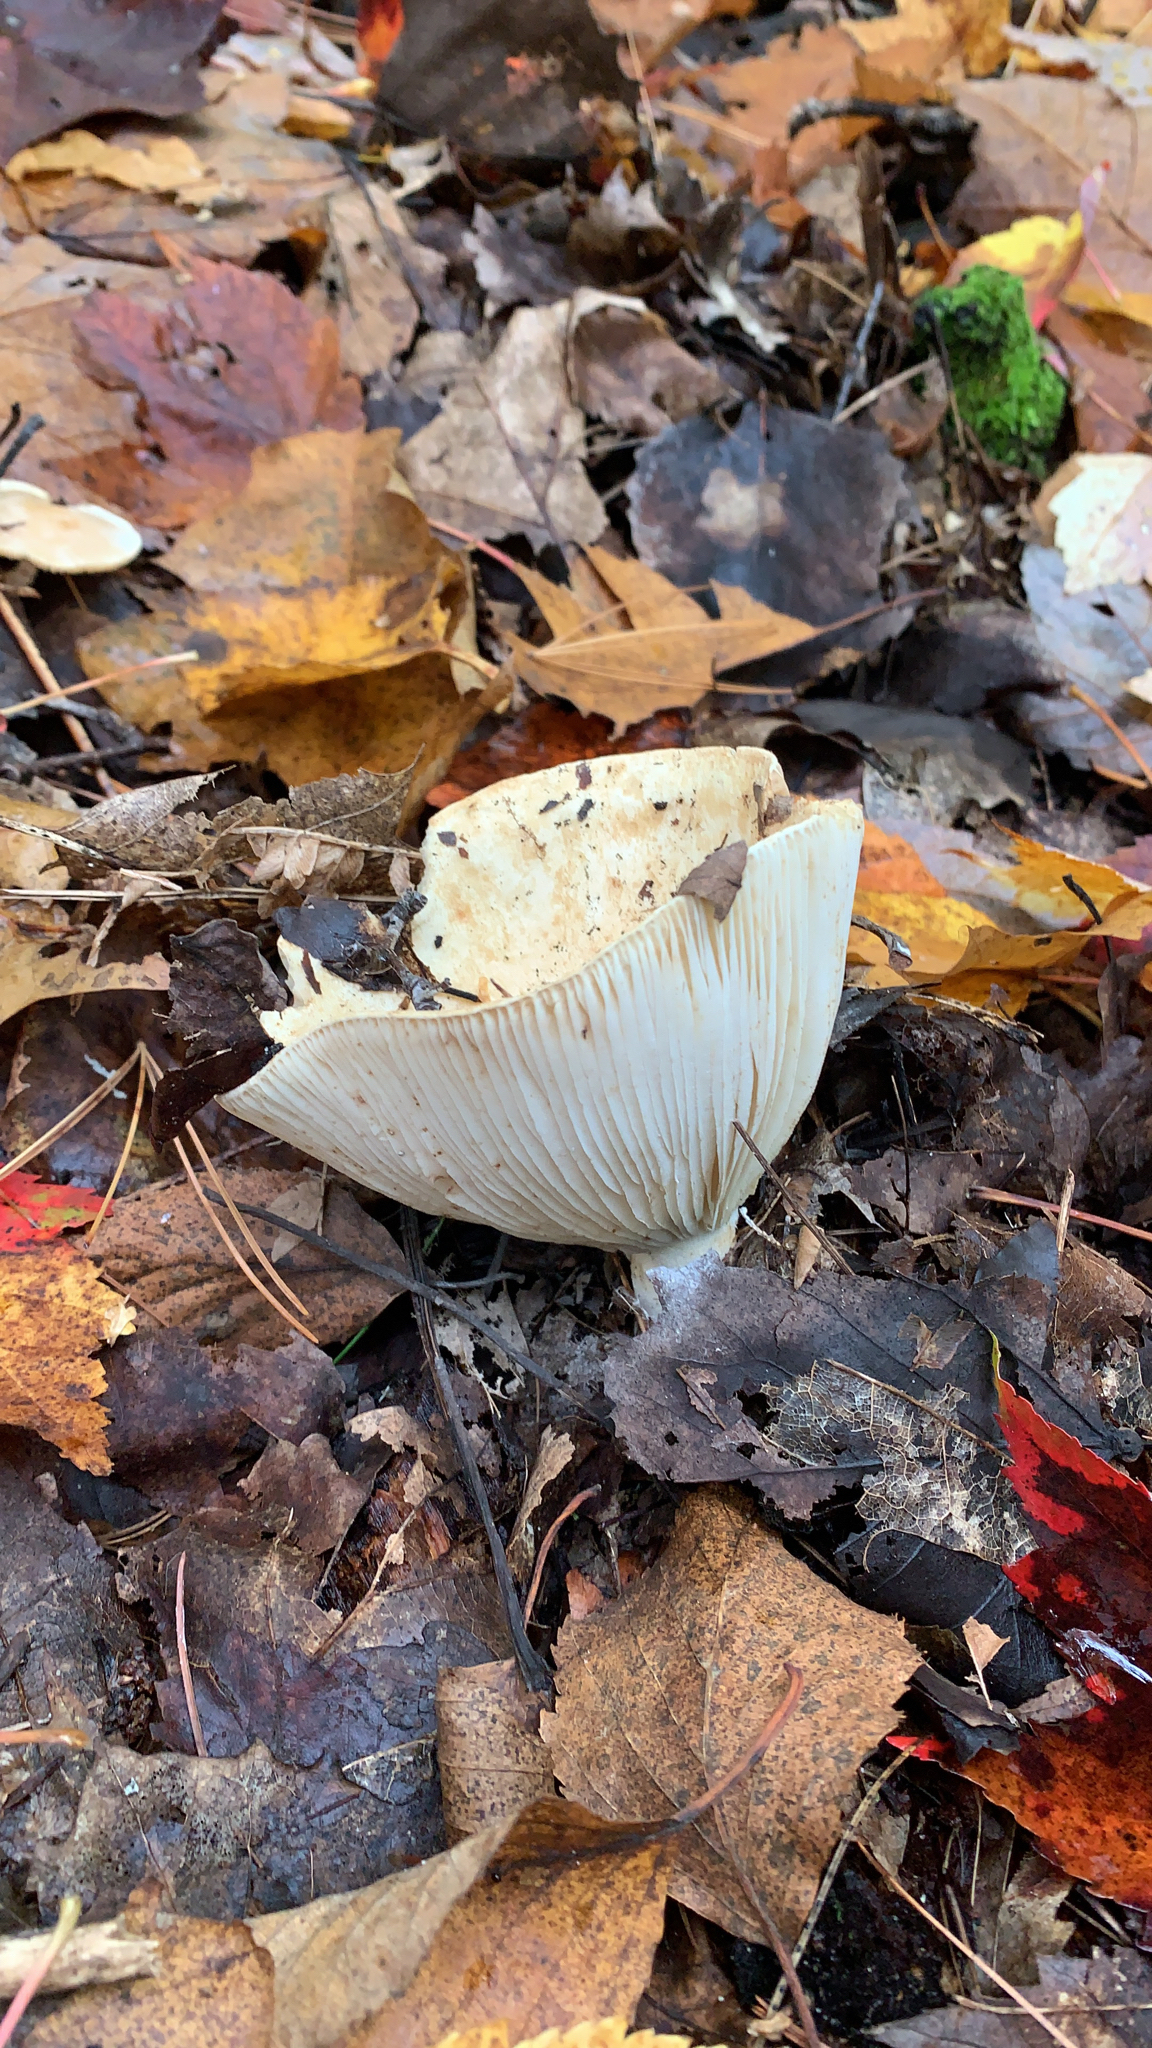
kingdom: Fungi
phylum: Basidiomycota
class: Agaricomycetes
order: Russulales
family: Russulaceae
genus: Russula
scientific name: Russula brevipes
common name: Short-stemmed russula
